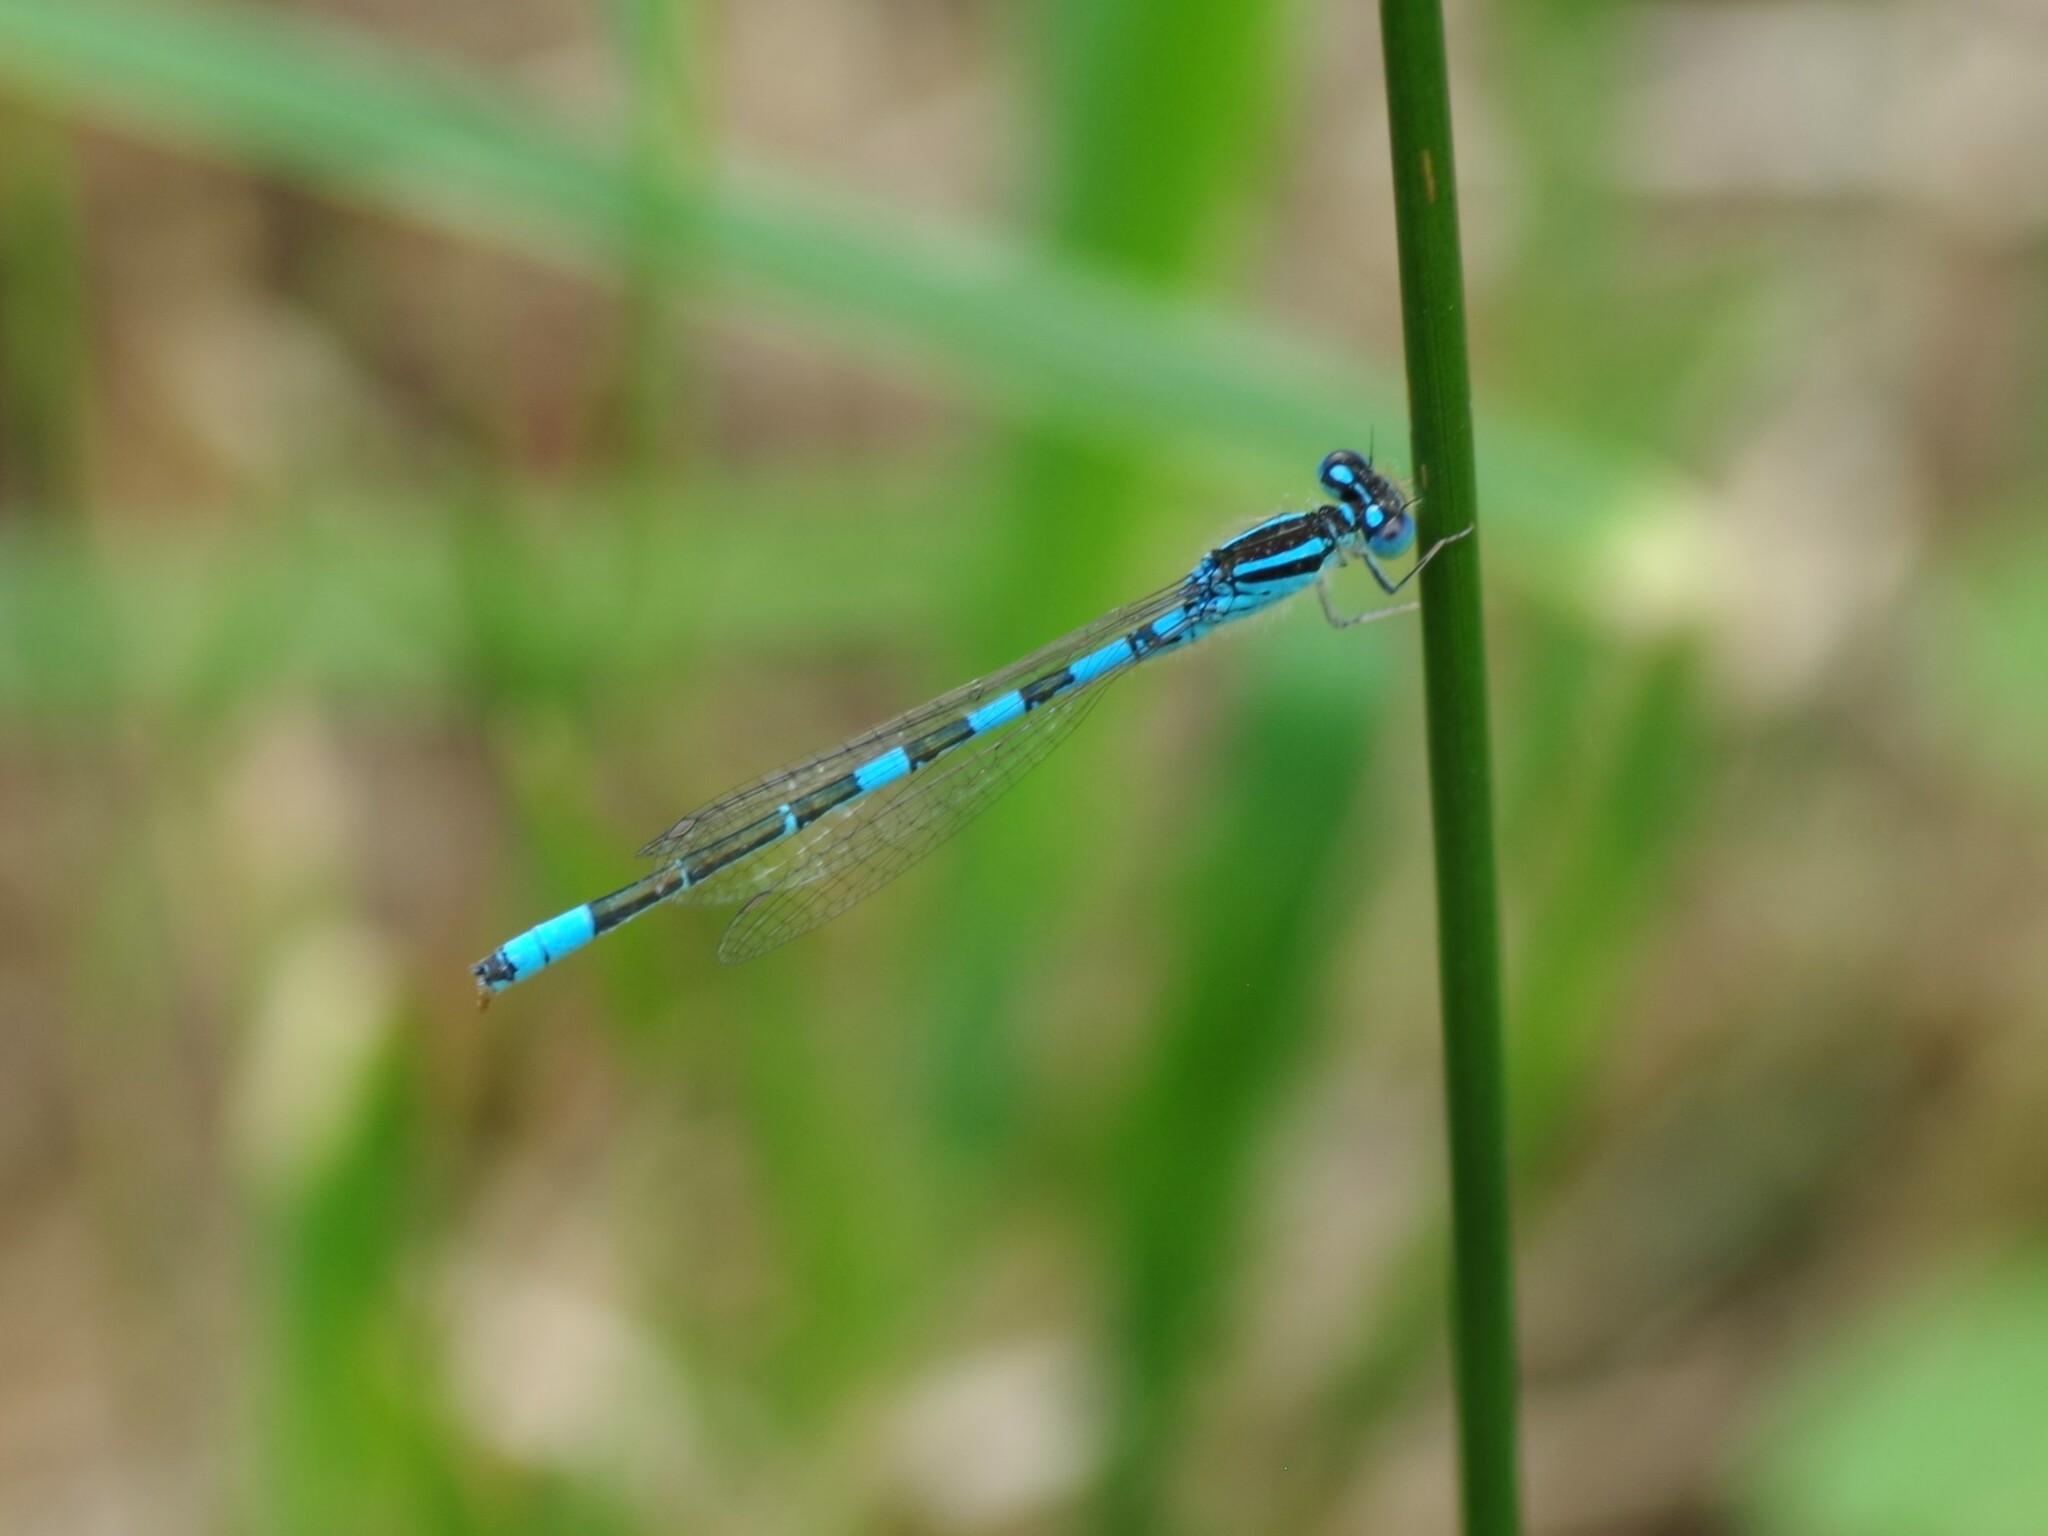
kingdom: Animalia
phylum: Arthropoda
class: Insecta
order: Odonata
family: Coenagrionidae
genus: Coenagrion
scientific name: Coenagrion scitulum
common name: Dainty bluet
